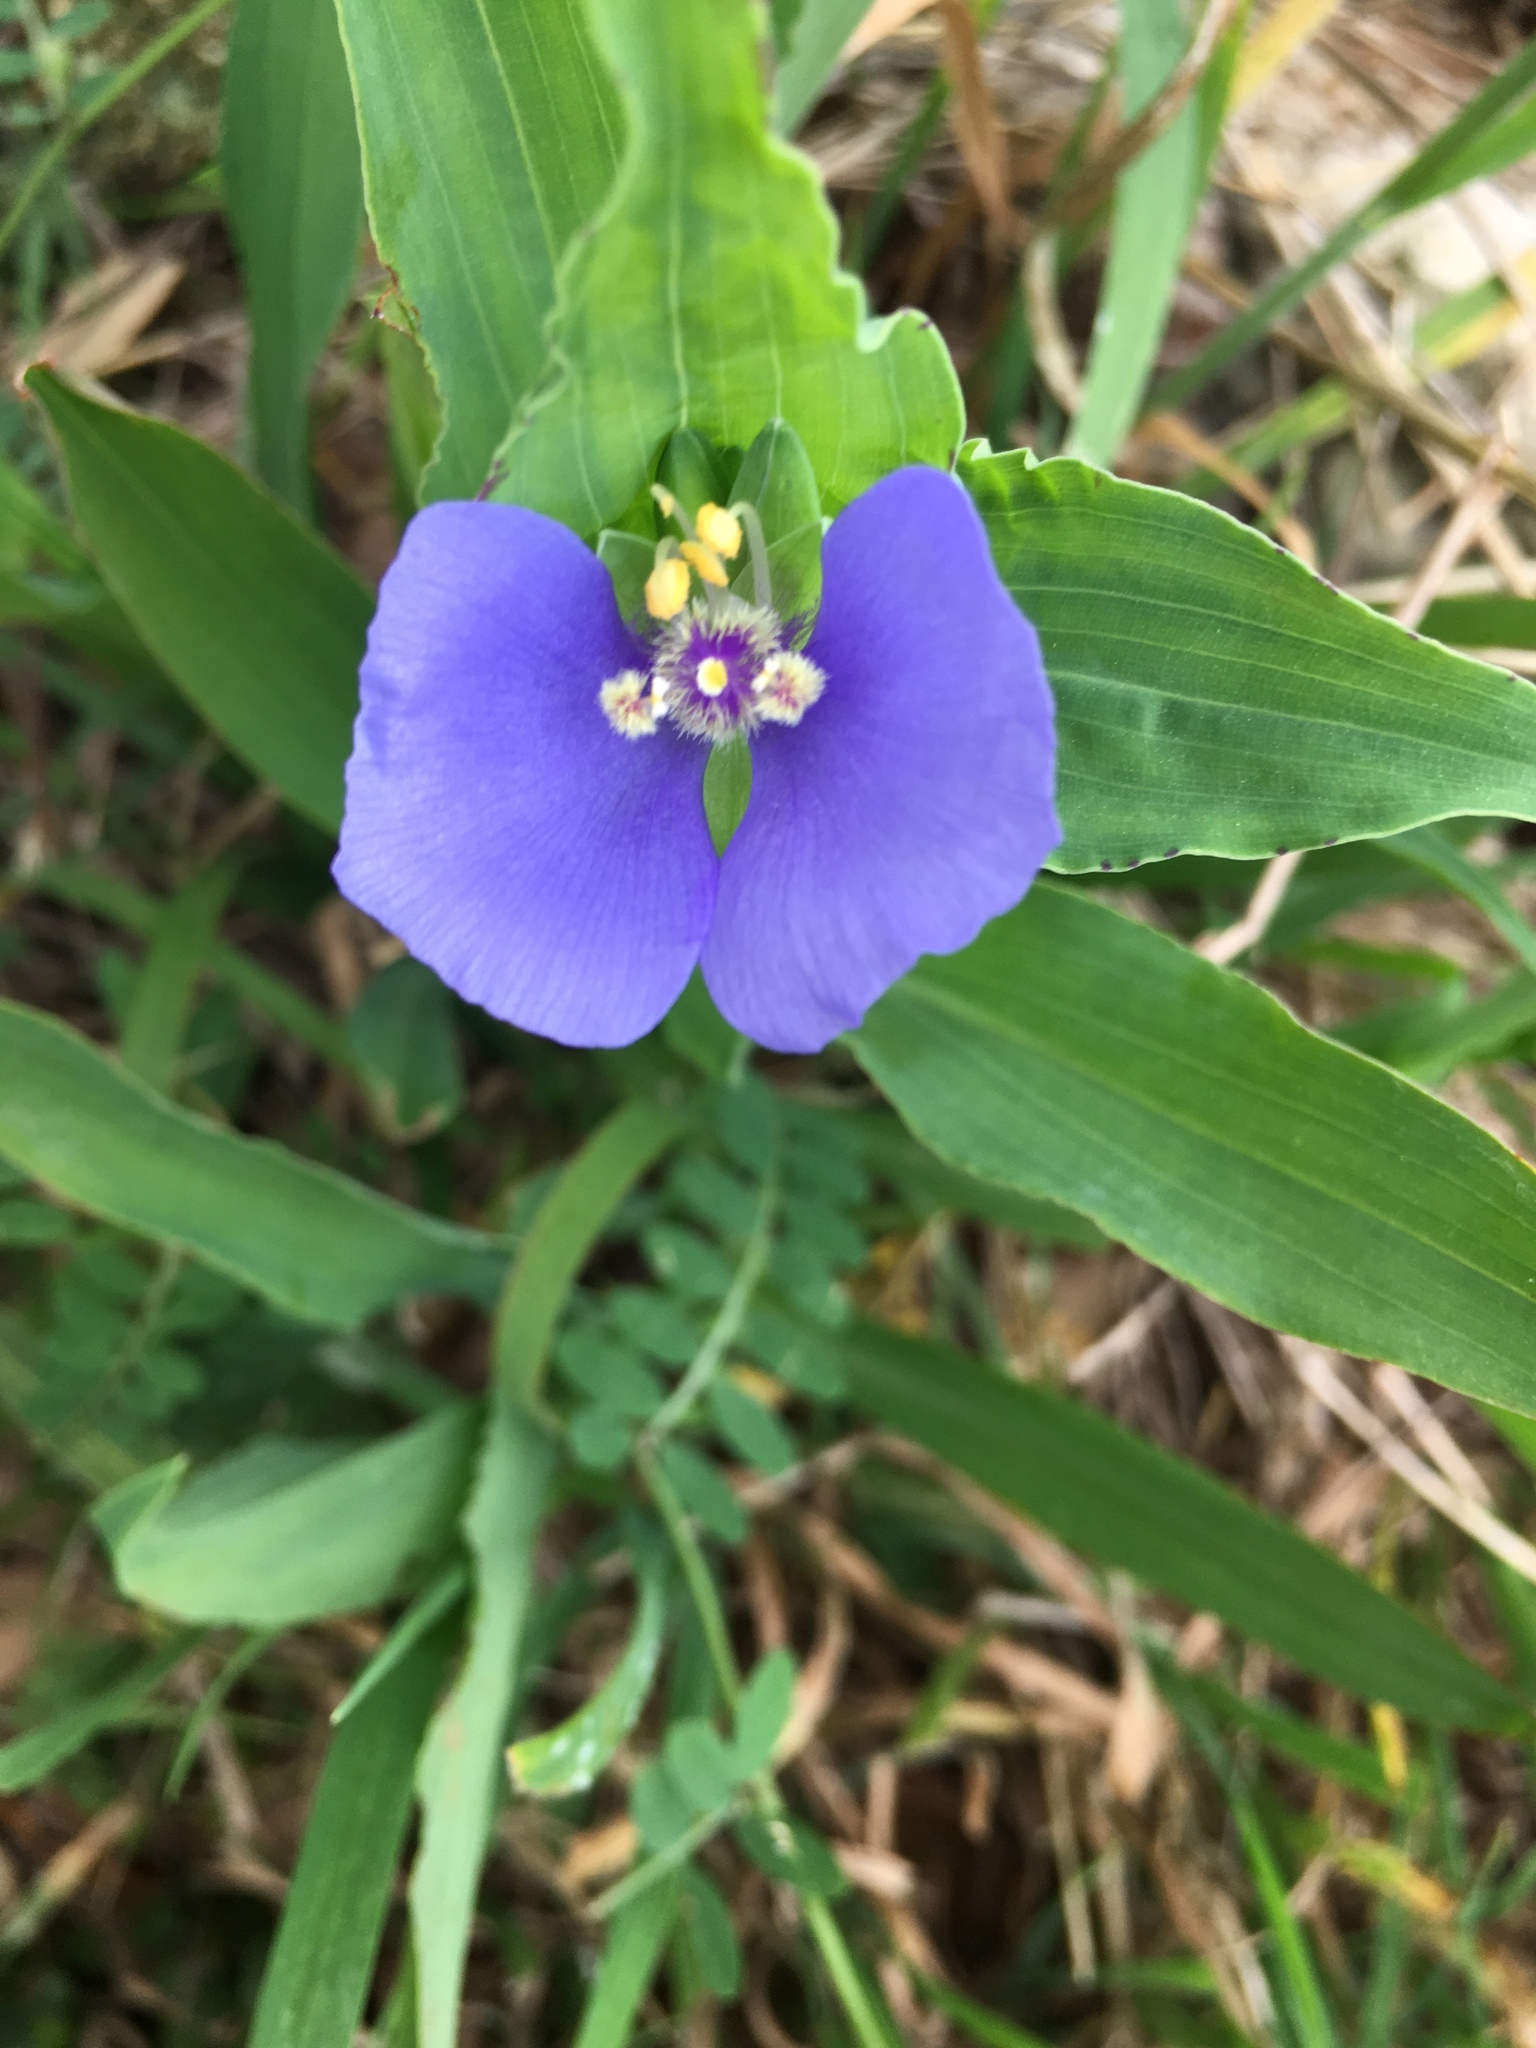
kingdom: Plantae
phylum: Tracheophyta
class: Liliopsida
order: Commelinales
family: Commelinaceae
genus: Tinantia
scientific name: Tinantia anomala
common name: False dayflower
